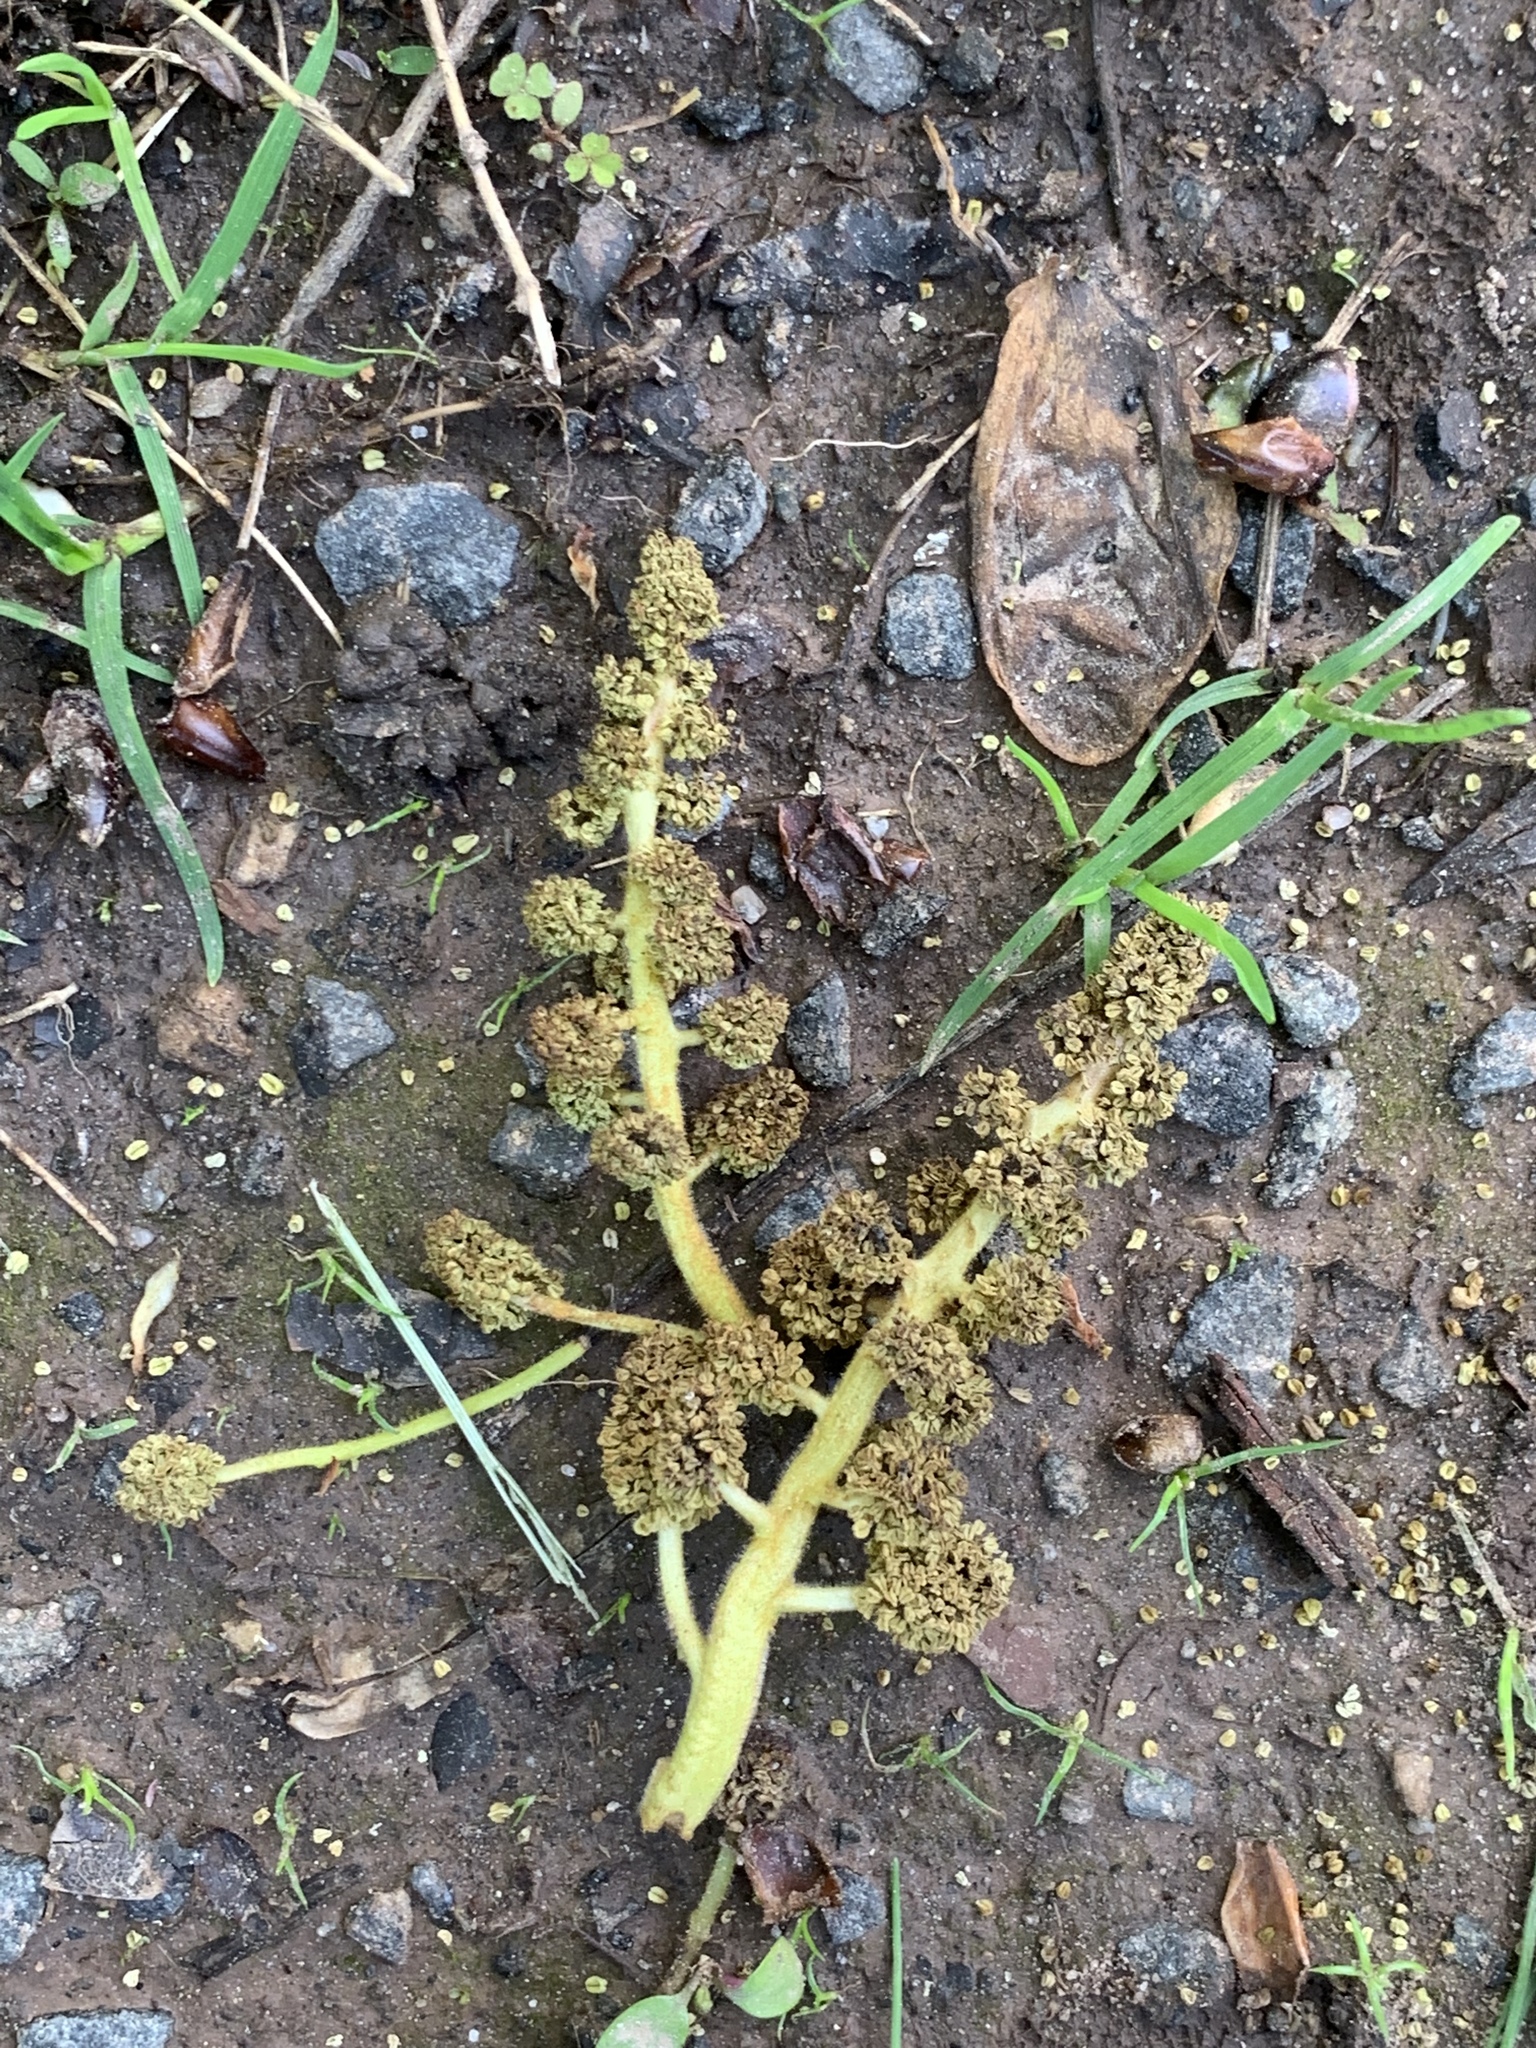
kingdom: Plantae
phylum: Tracheophyta
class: Magnoliopsida
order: Saxifragales
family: Altingiaceae
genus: Liquidambar
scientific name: Liquidambar styraciflua
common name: Sweet gum
